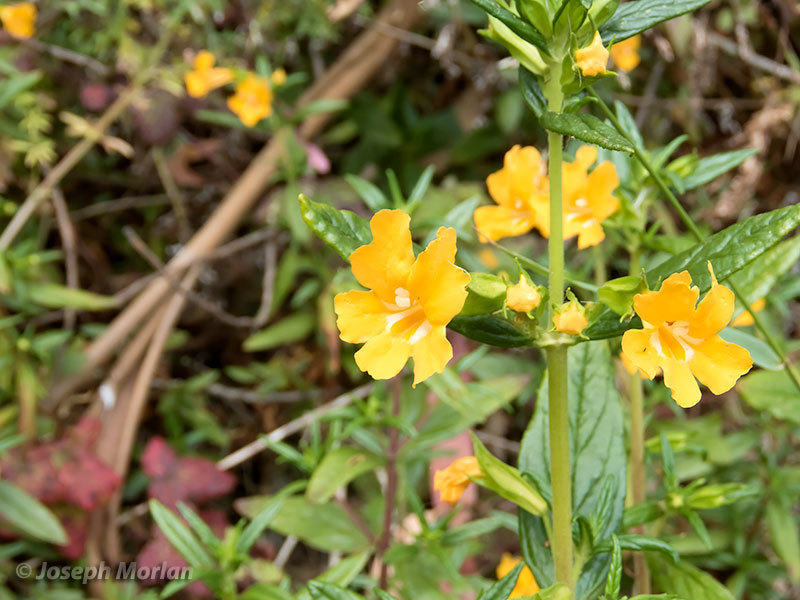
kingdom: Plantae
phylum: Tracheophyta
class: Magnoliopsida
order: Lamiales
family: Phrymaceae
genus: Diplacus
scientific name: Diplacus aurantiacus
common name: Bush monkey-flower
